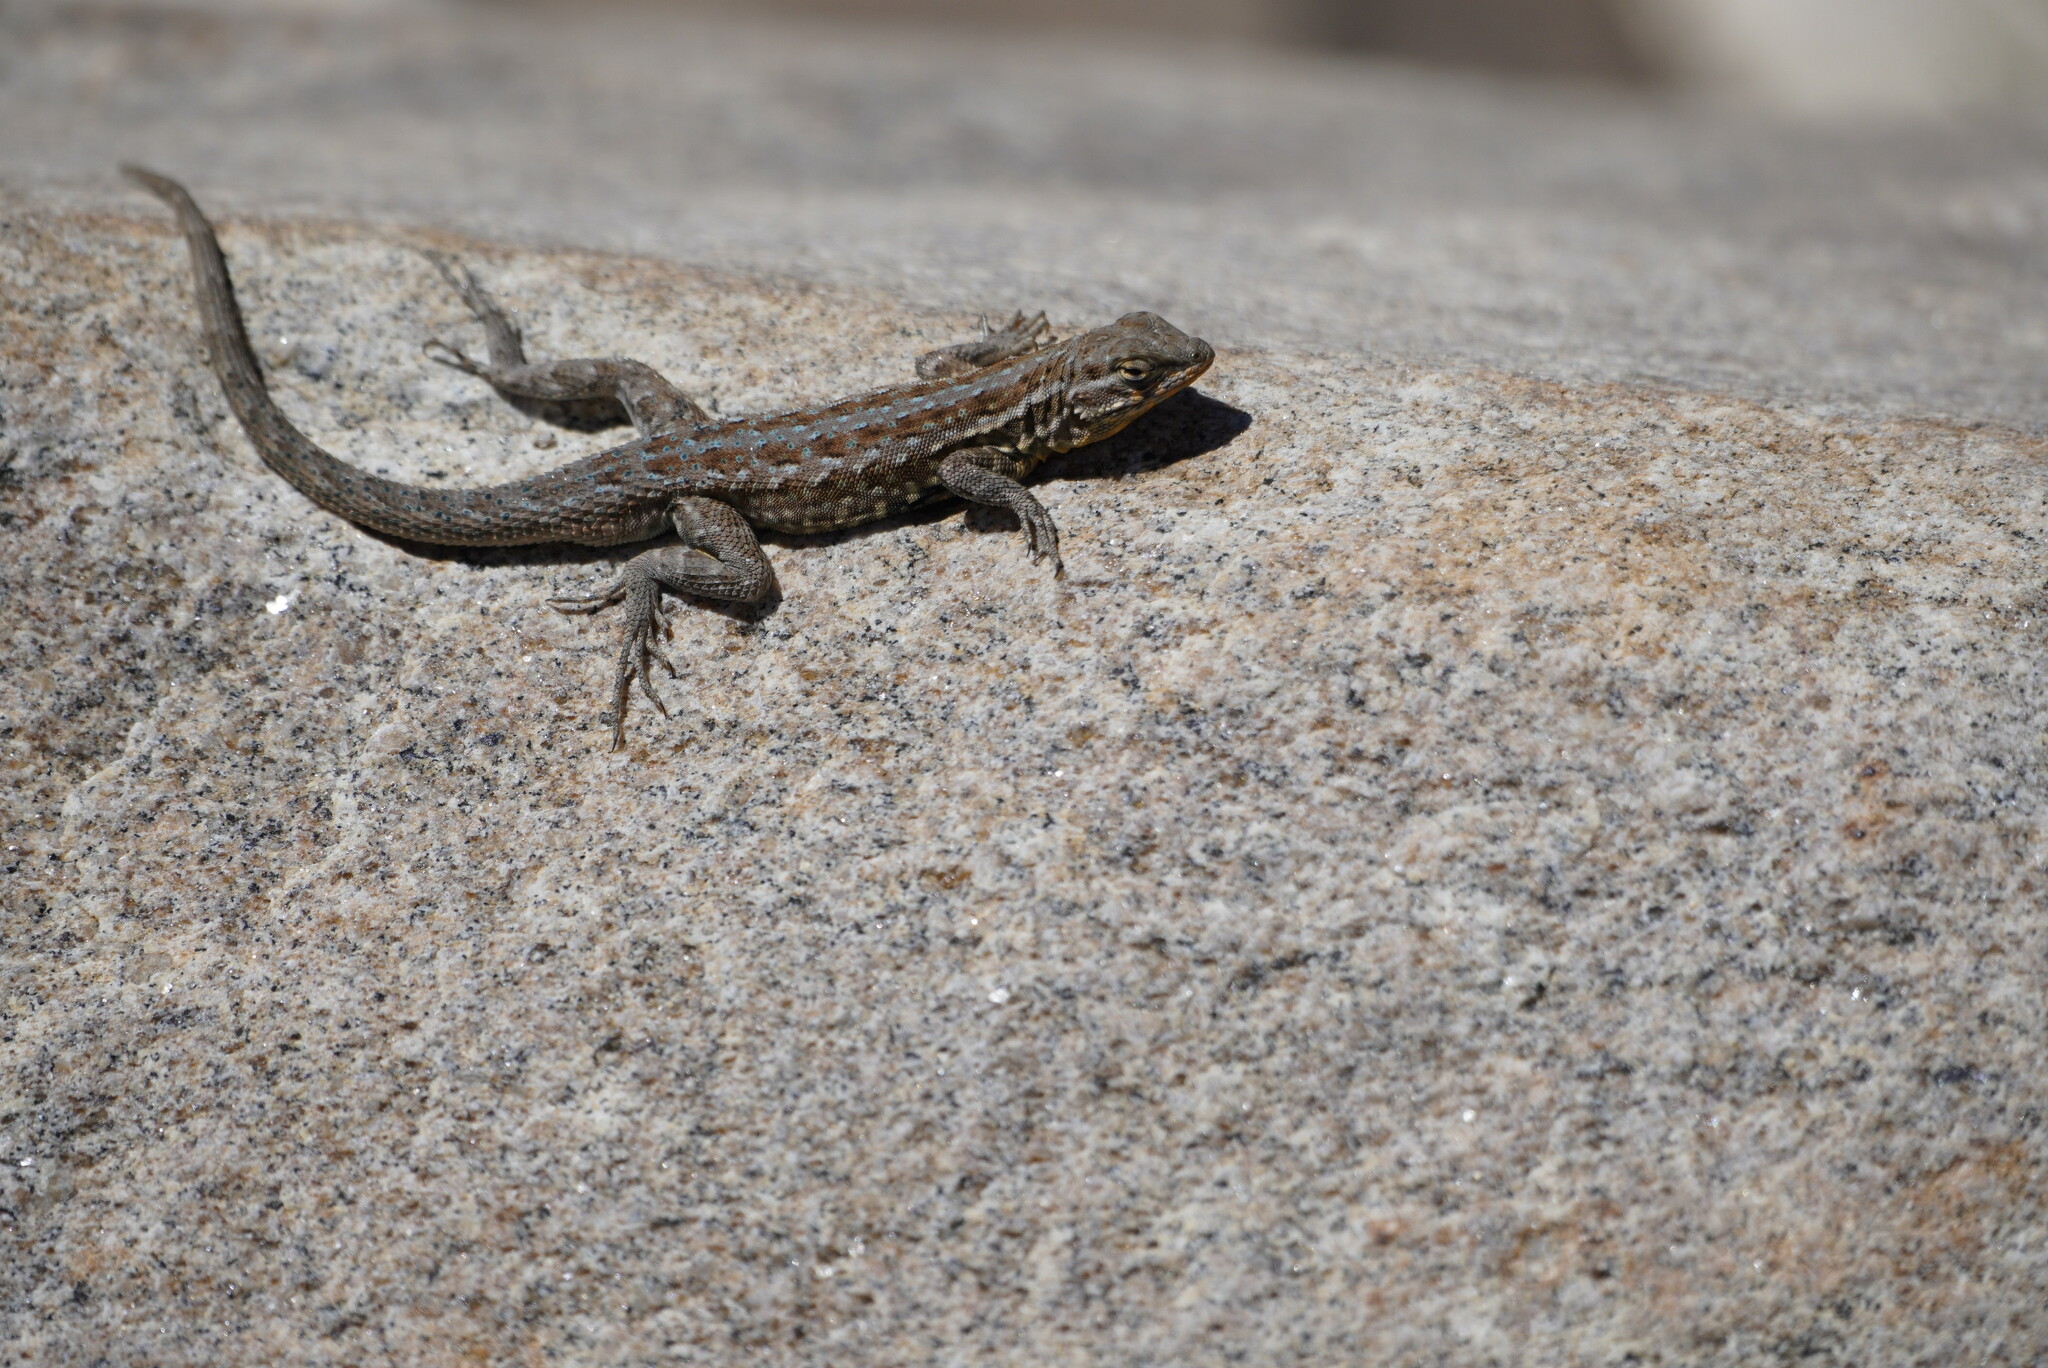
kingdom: Animalia
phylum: Chordata
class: Squamata
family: Phrynosomatidae
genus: Uta
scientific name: Uta stansburiana
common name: Side-blotched lizard
